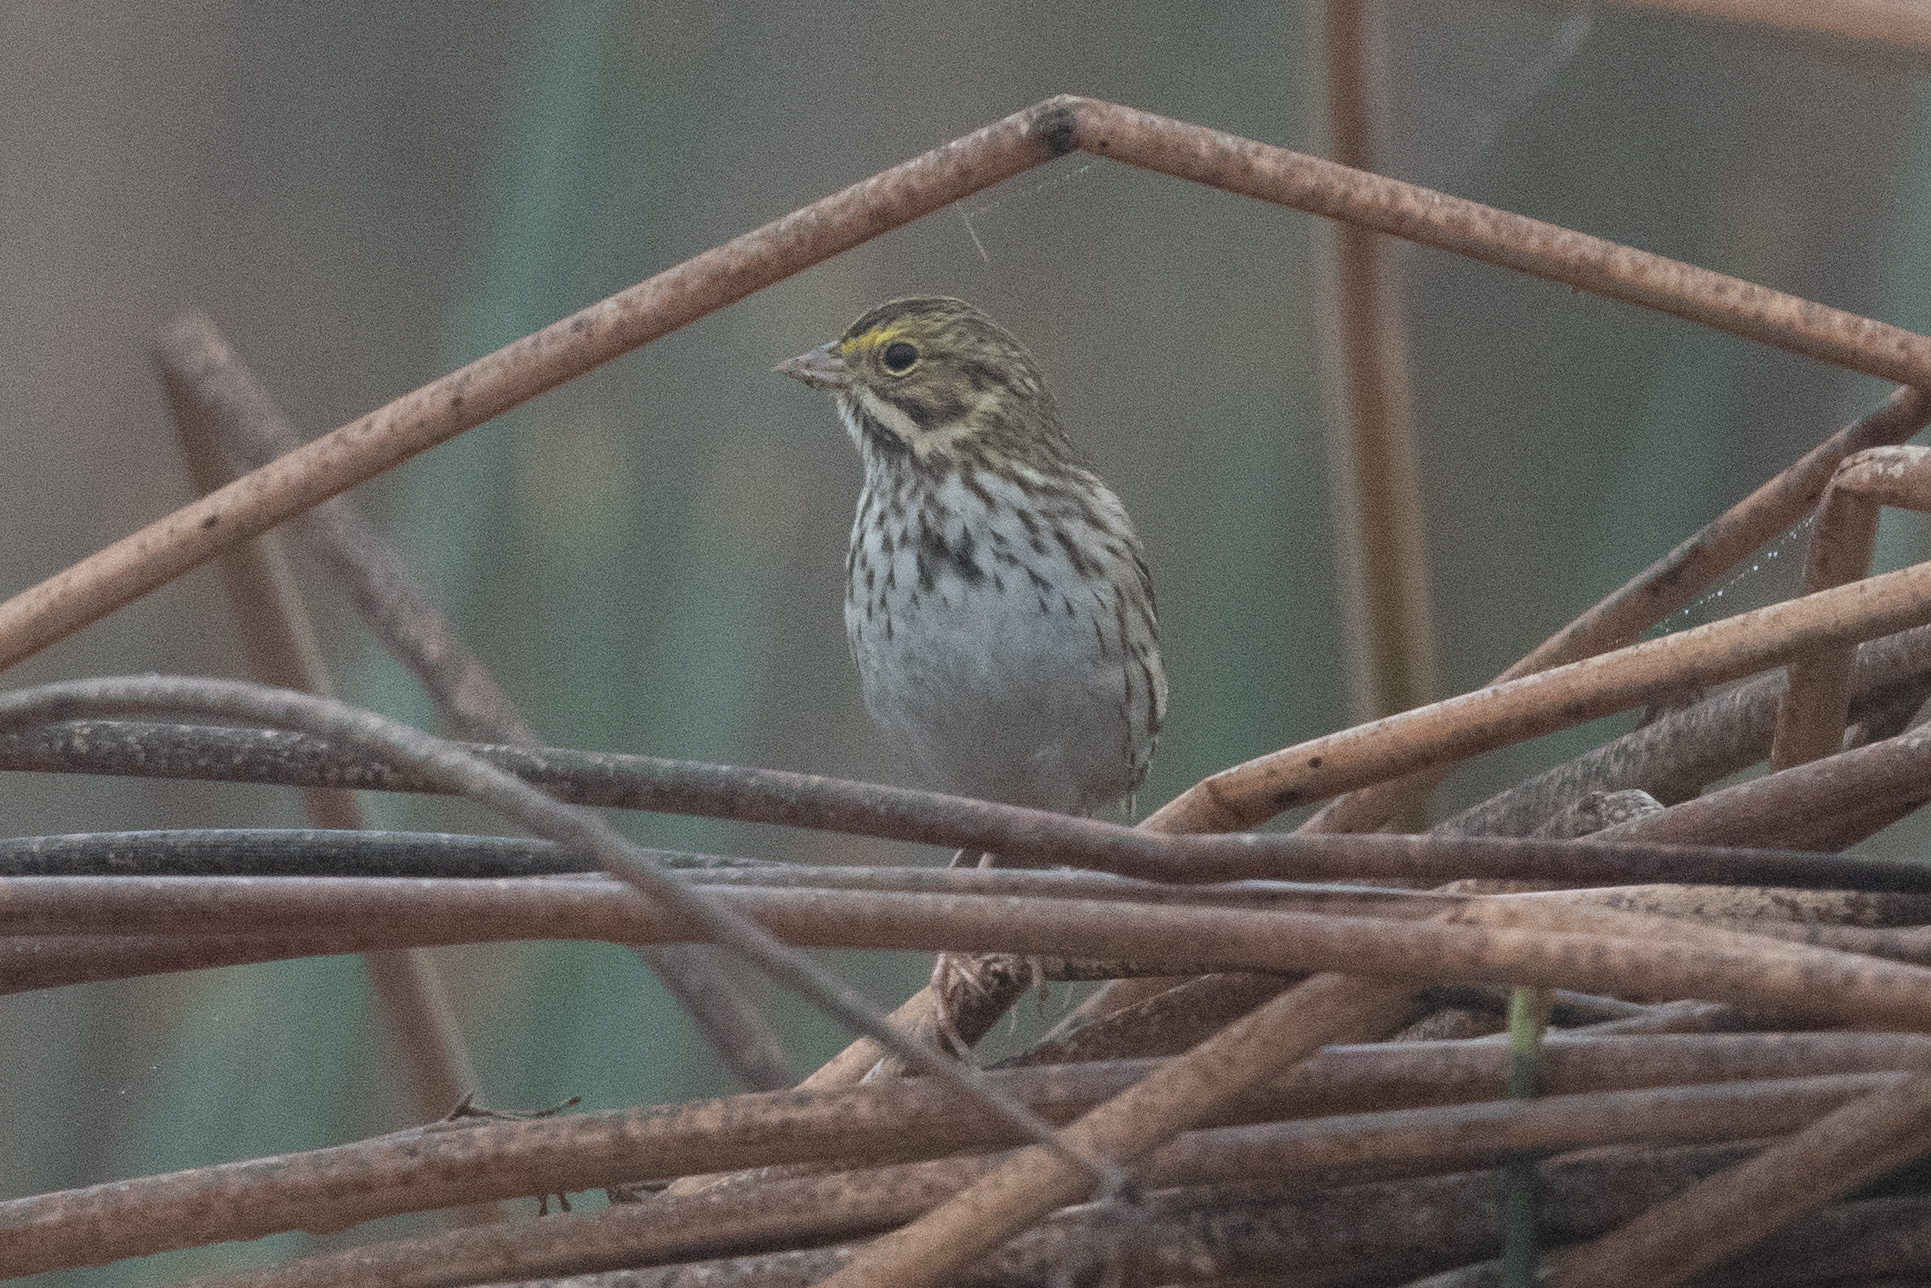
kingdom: Animalia
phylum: Chordata
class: Aves
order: Passeriformes
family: Passerellidae
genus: Passerculus
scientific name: Passerculus sandwichensis
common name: Savannah sparrow
